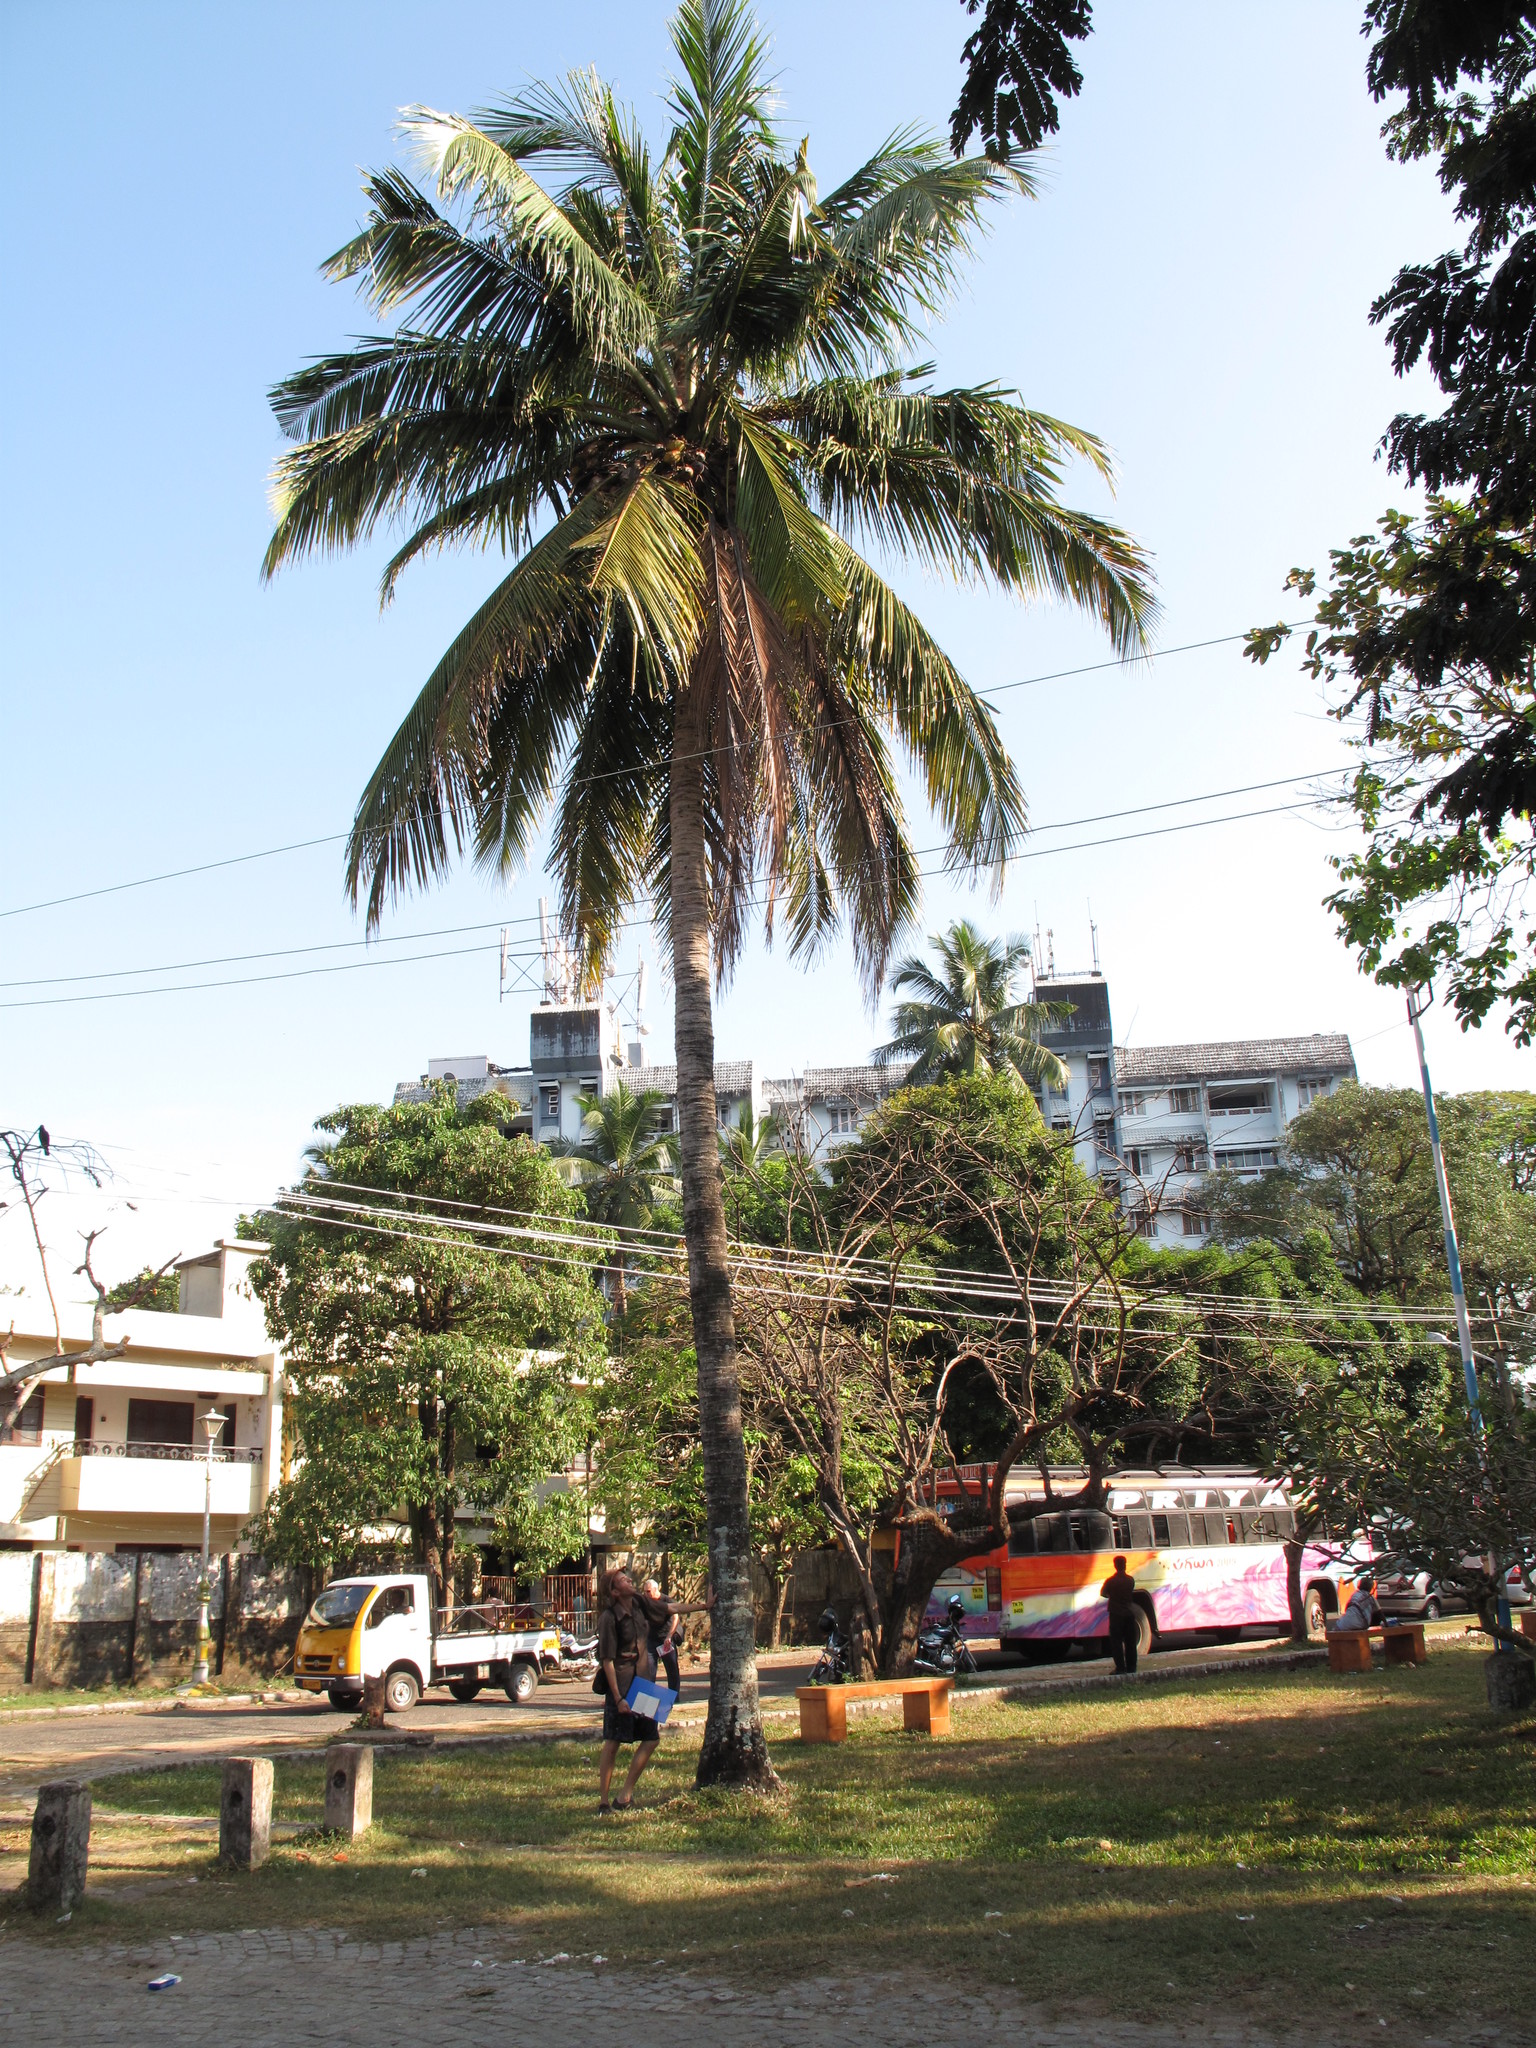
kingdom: Plantae
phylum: Tracheophyta
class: Liliopsida
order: Arecales
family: Arecaceae
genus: Cocos
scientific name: Cocos nucifera
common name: Coconut palm
